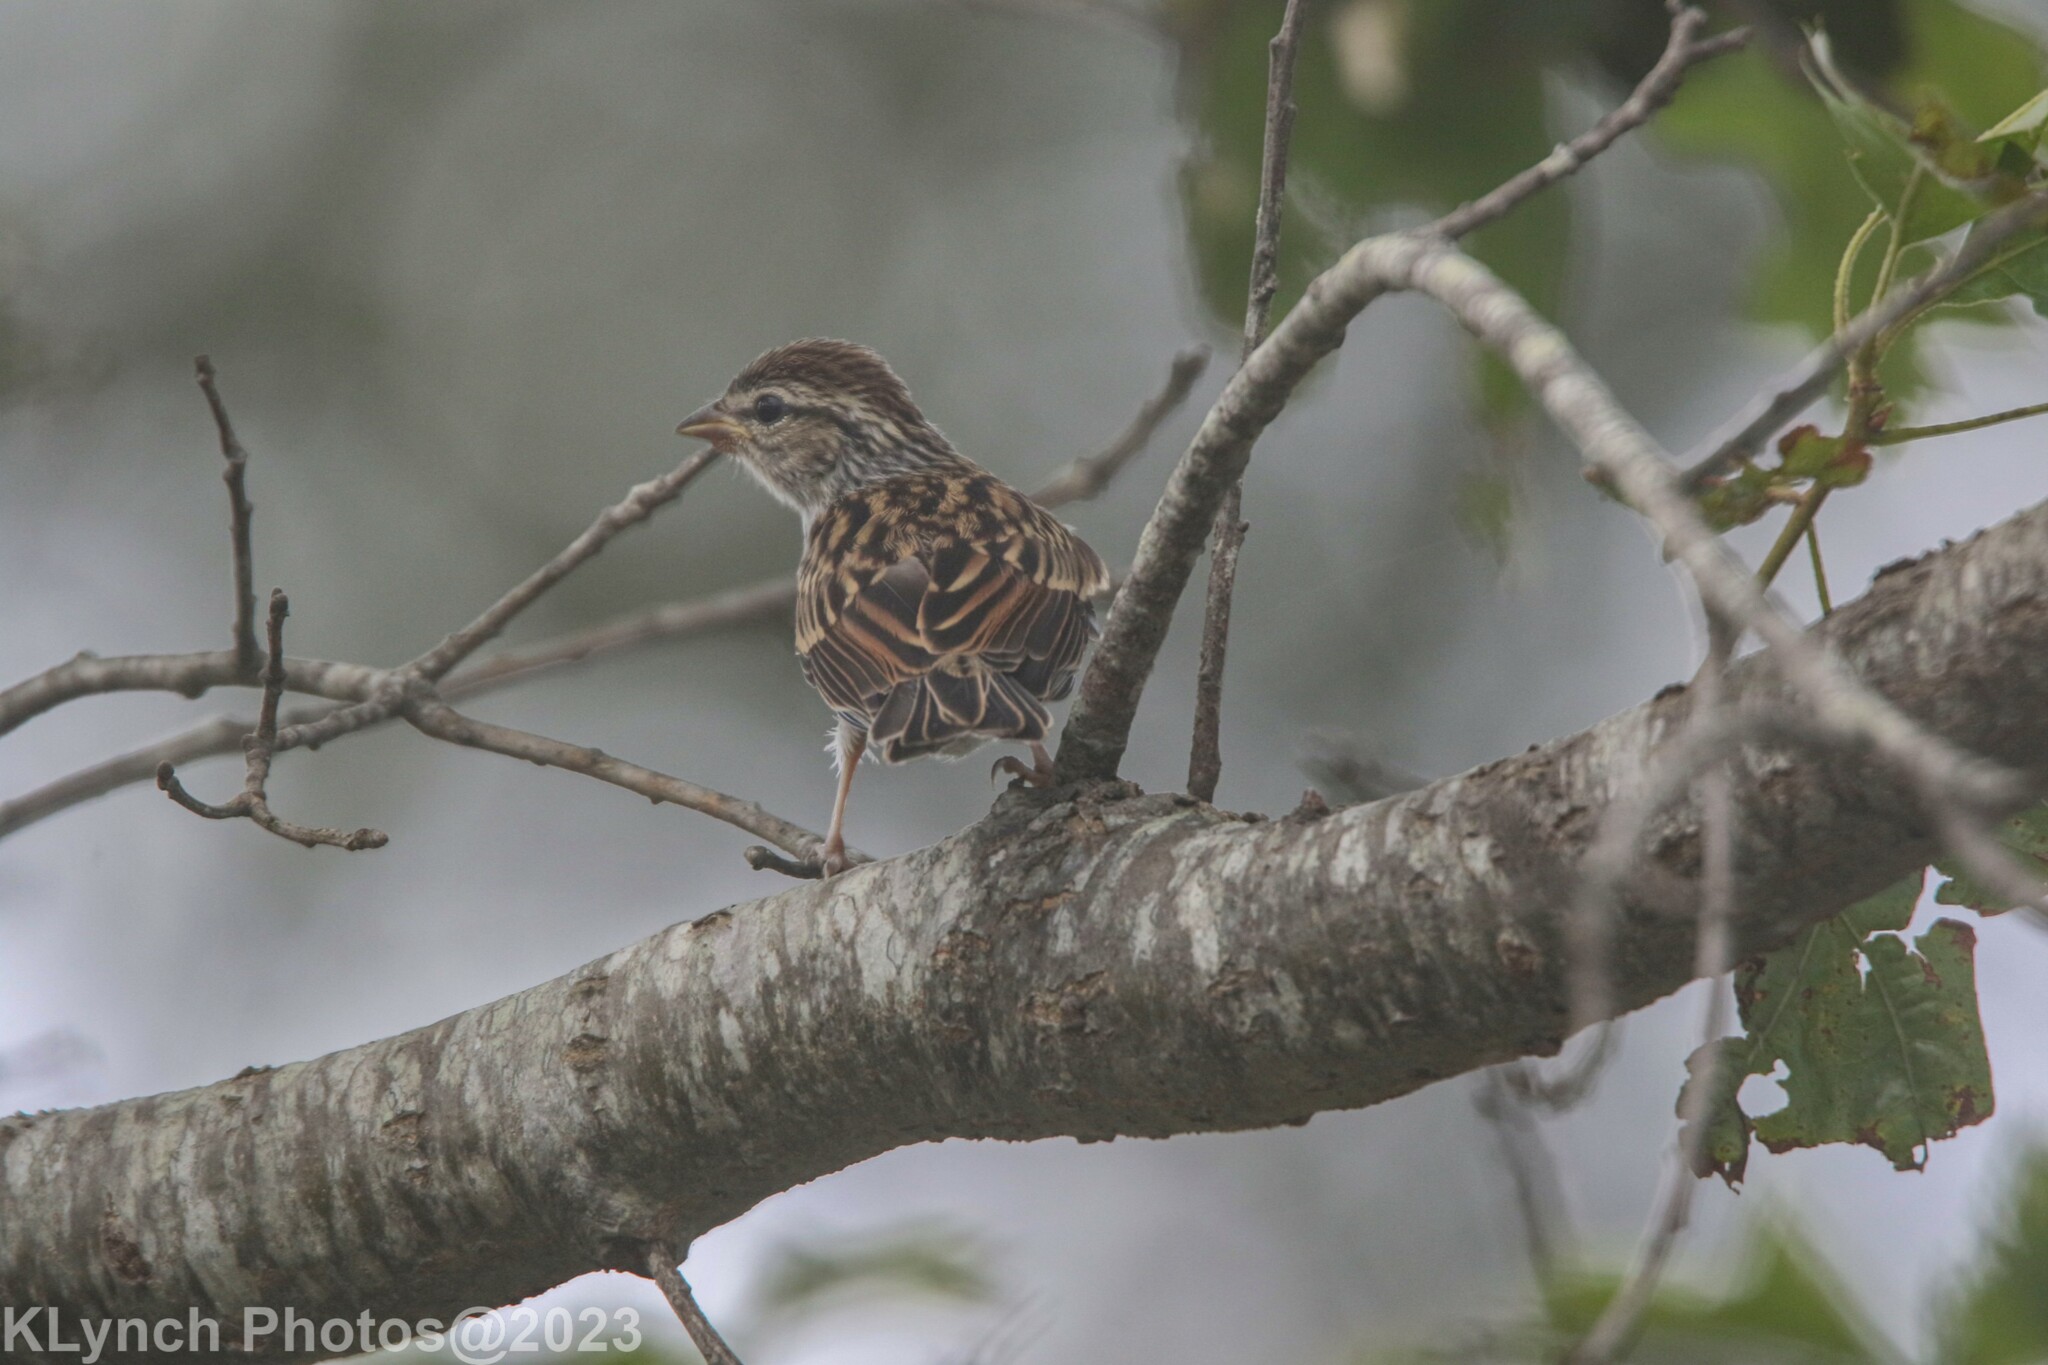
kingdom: Animalia
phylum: Chordata
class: Aves
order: Passeriformes
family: Passerellidae
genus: Spizella
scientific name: Spizella passerina
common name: Chipping sparrow
